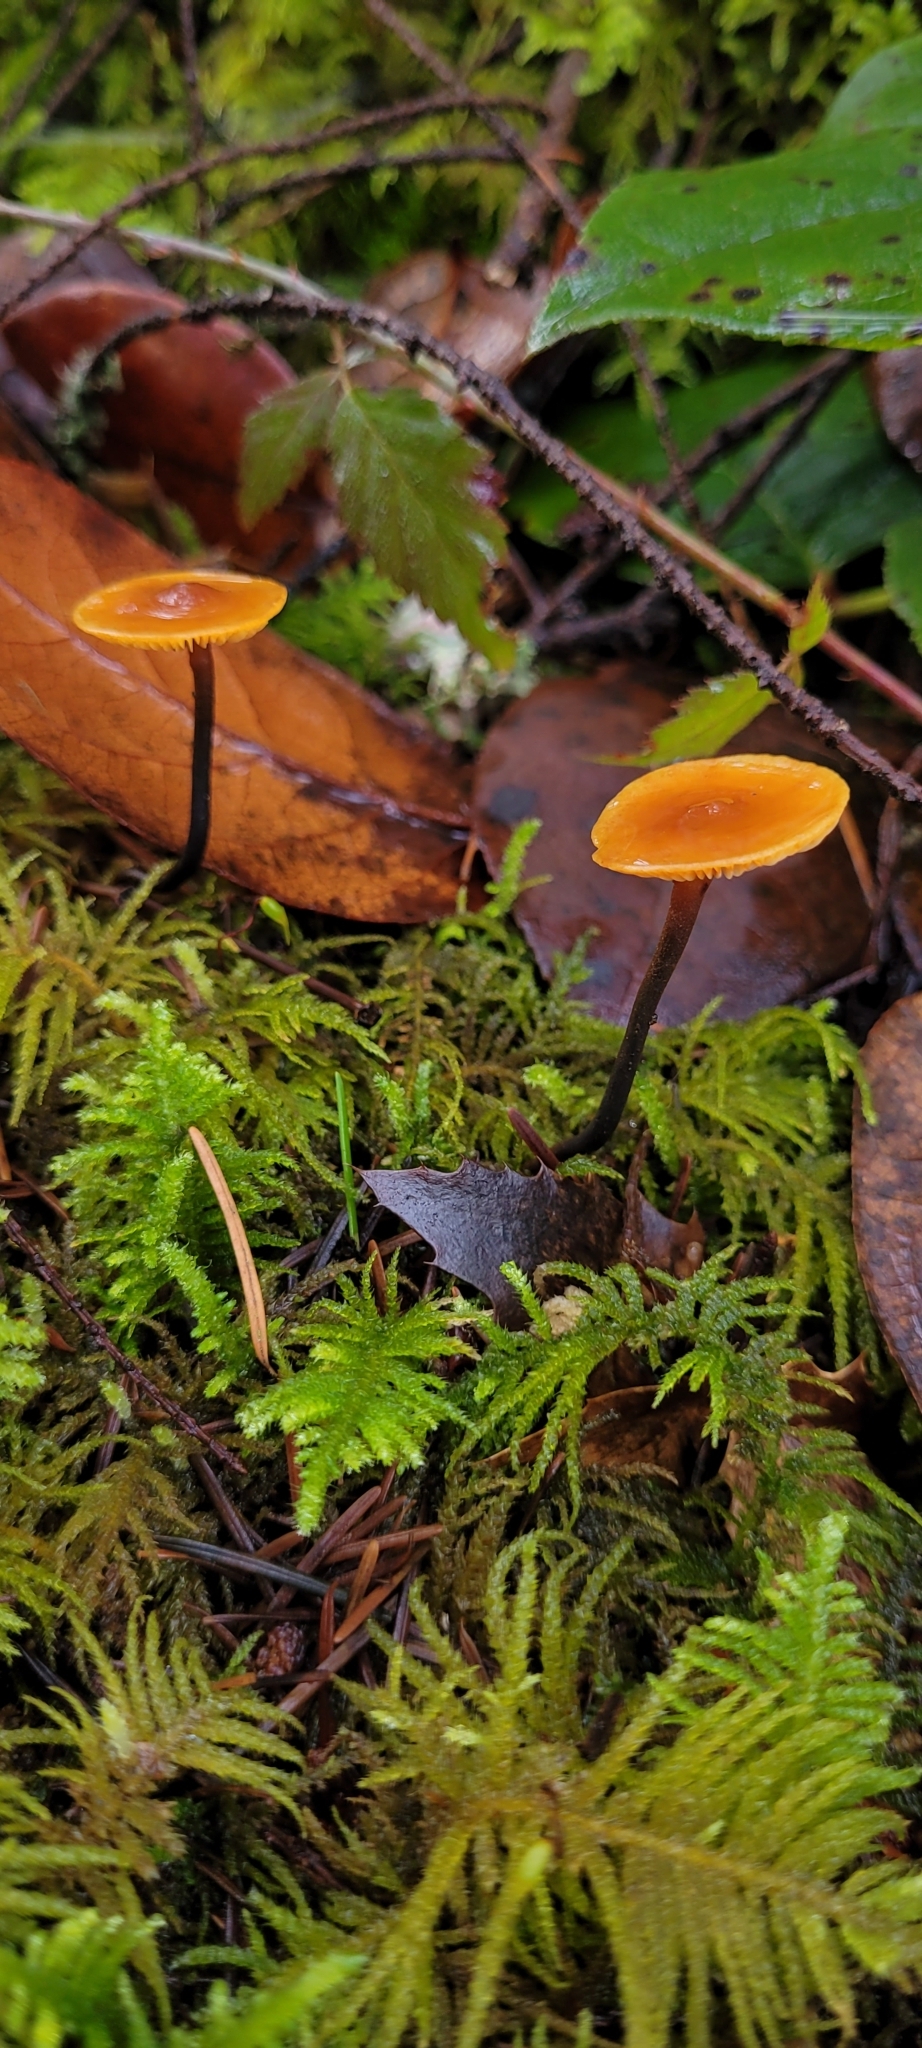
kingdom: Fungi
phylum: Basidiomycota
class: Agaricomycetes
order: Agaricales
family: Mycenaceae
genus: Xeromphalina
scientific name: Xeromphalina fulvipes
